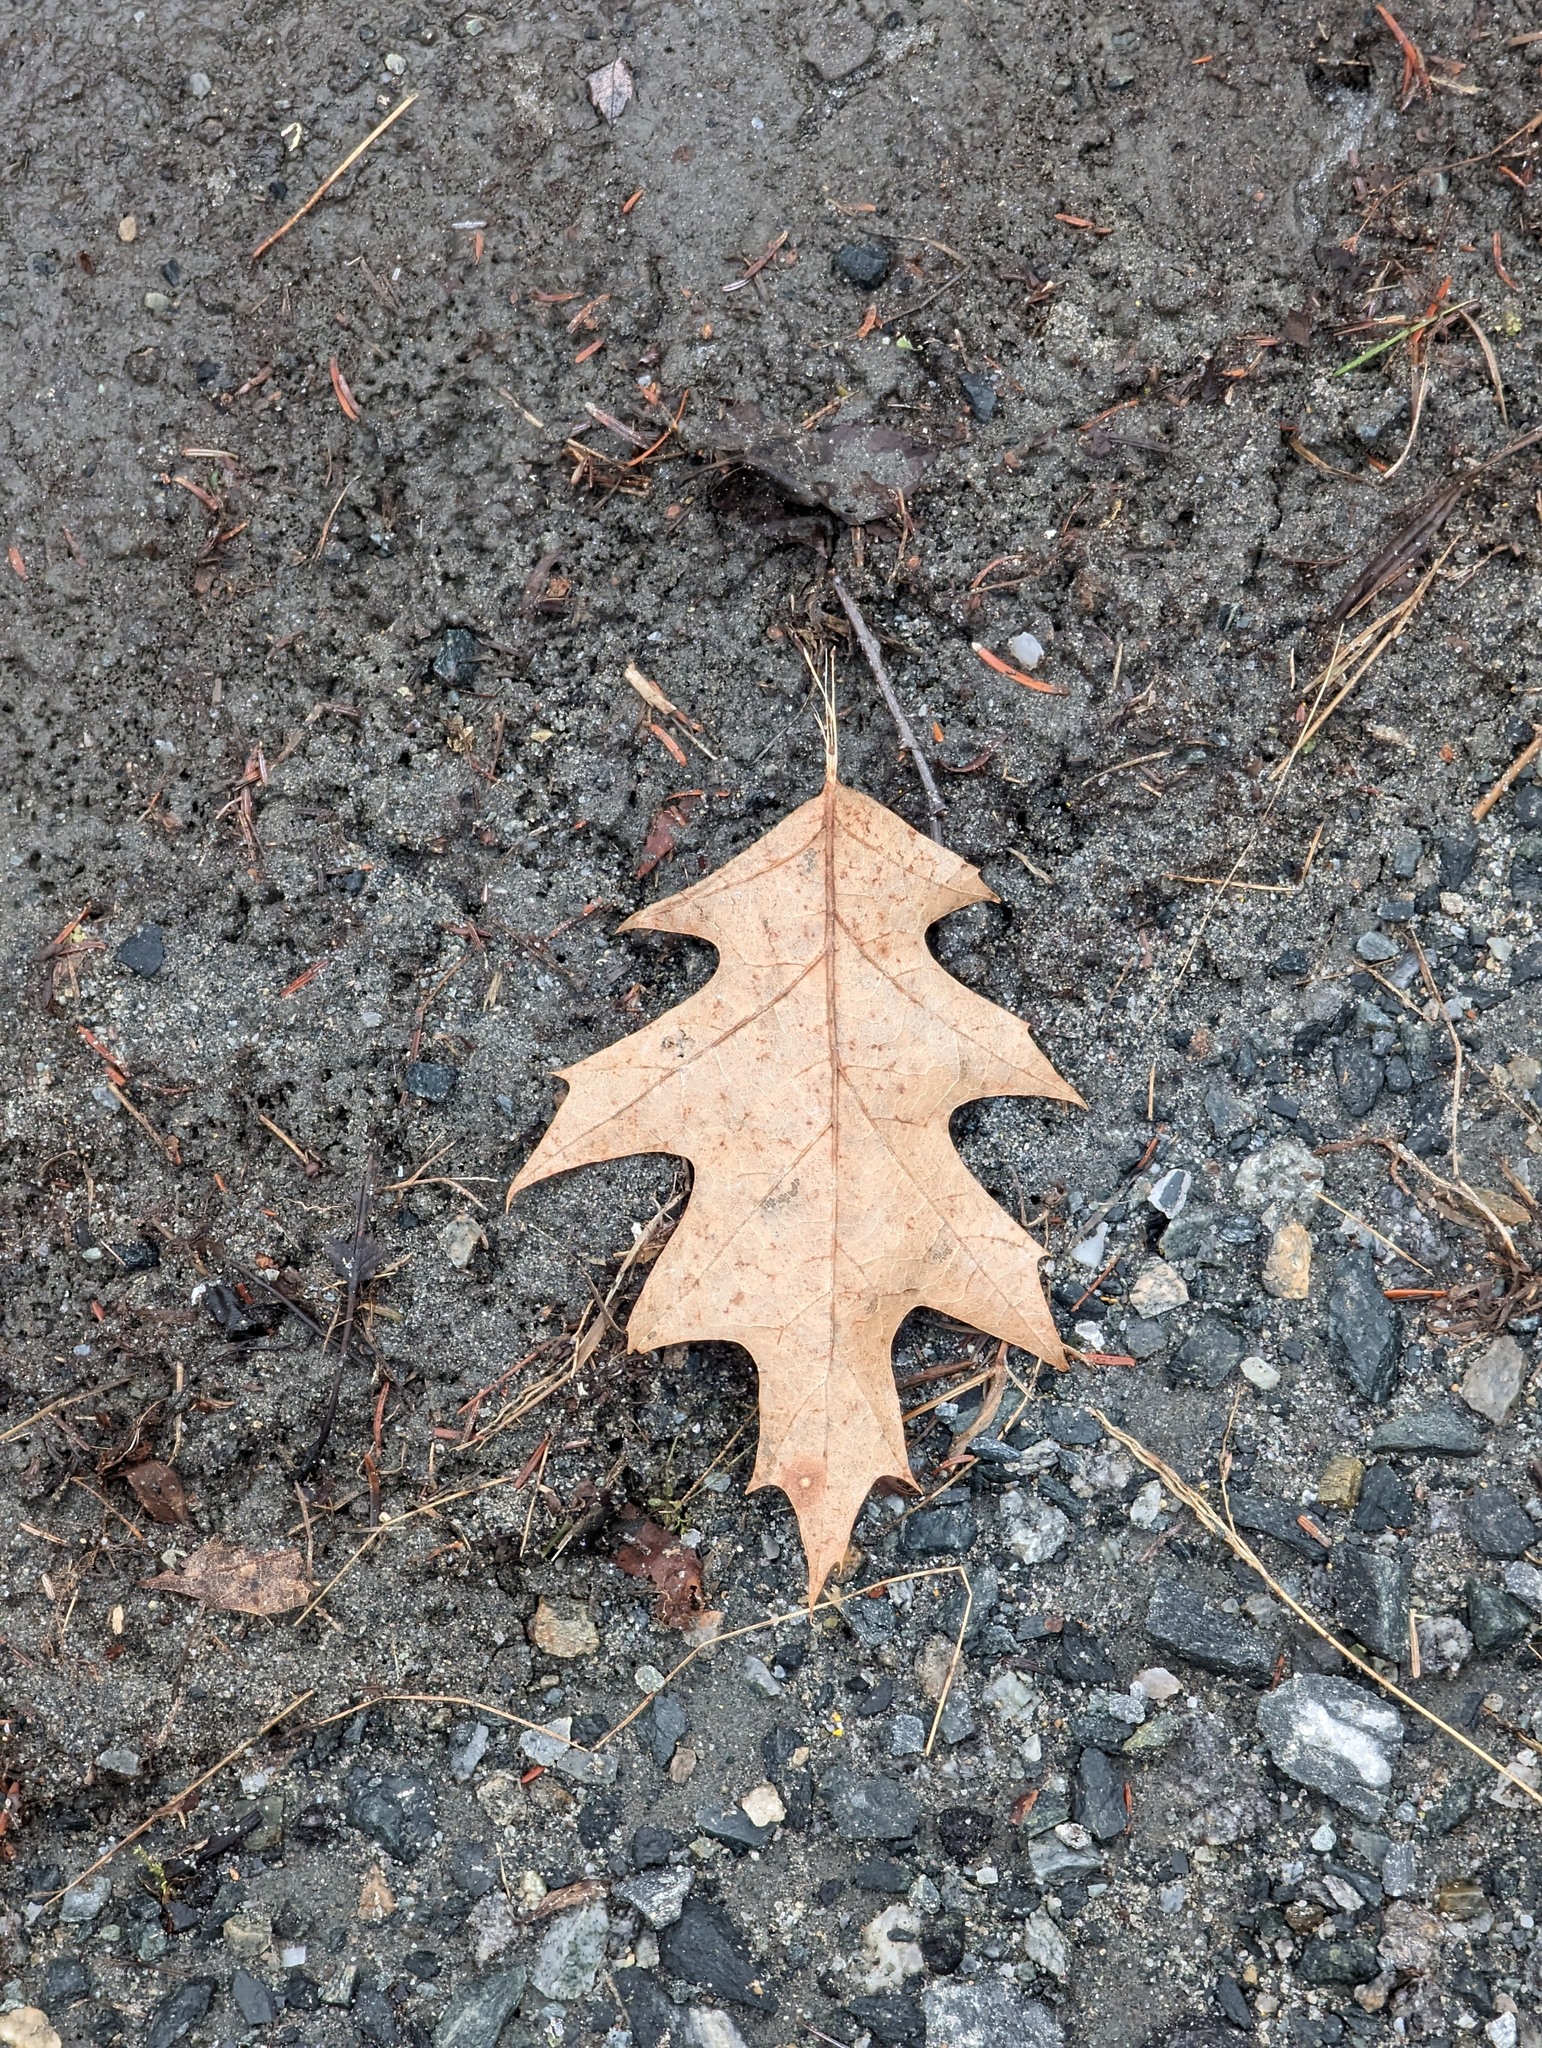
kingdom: Plantae
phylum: Tracheophyta
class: Magnoliopsida
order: Fagales
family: Fagaceae
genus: Quercus
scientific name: Quercus rubra
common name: Red oak
